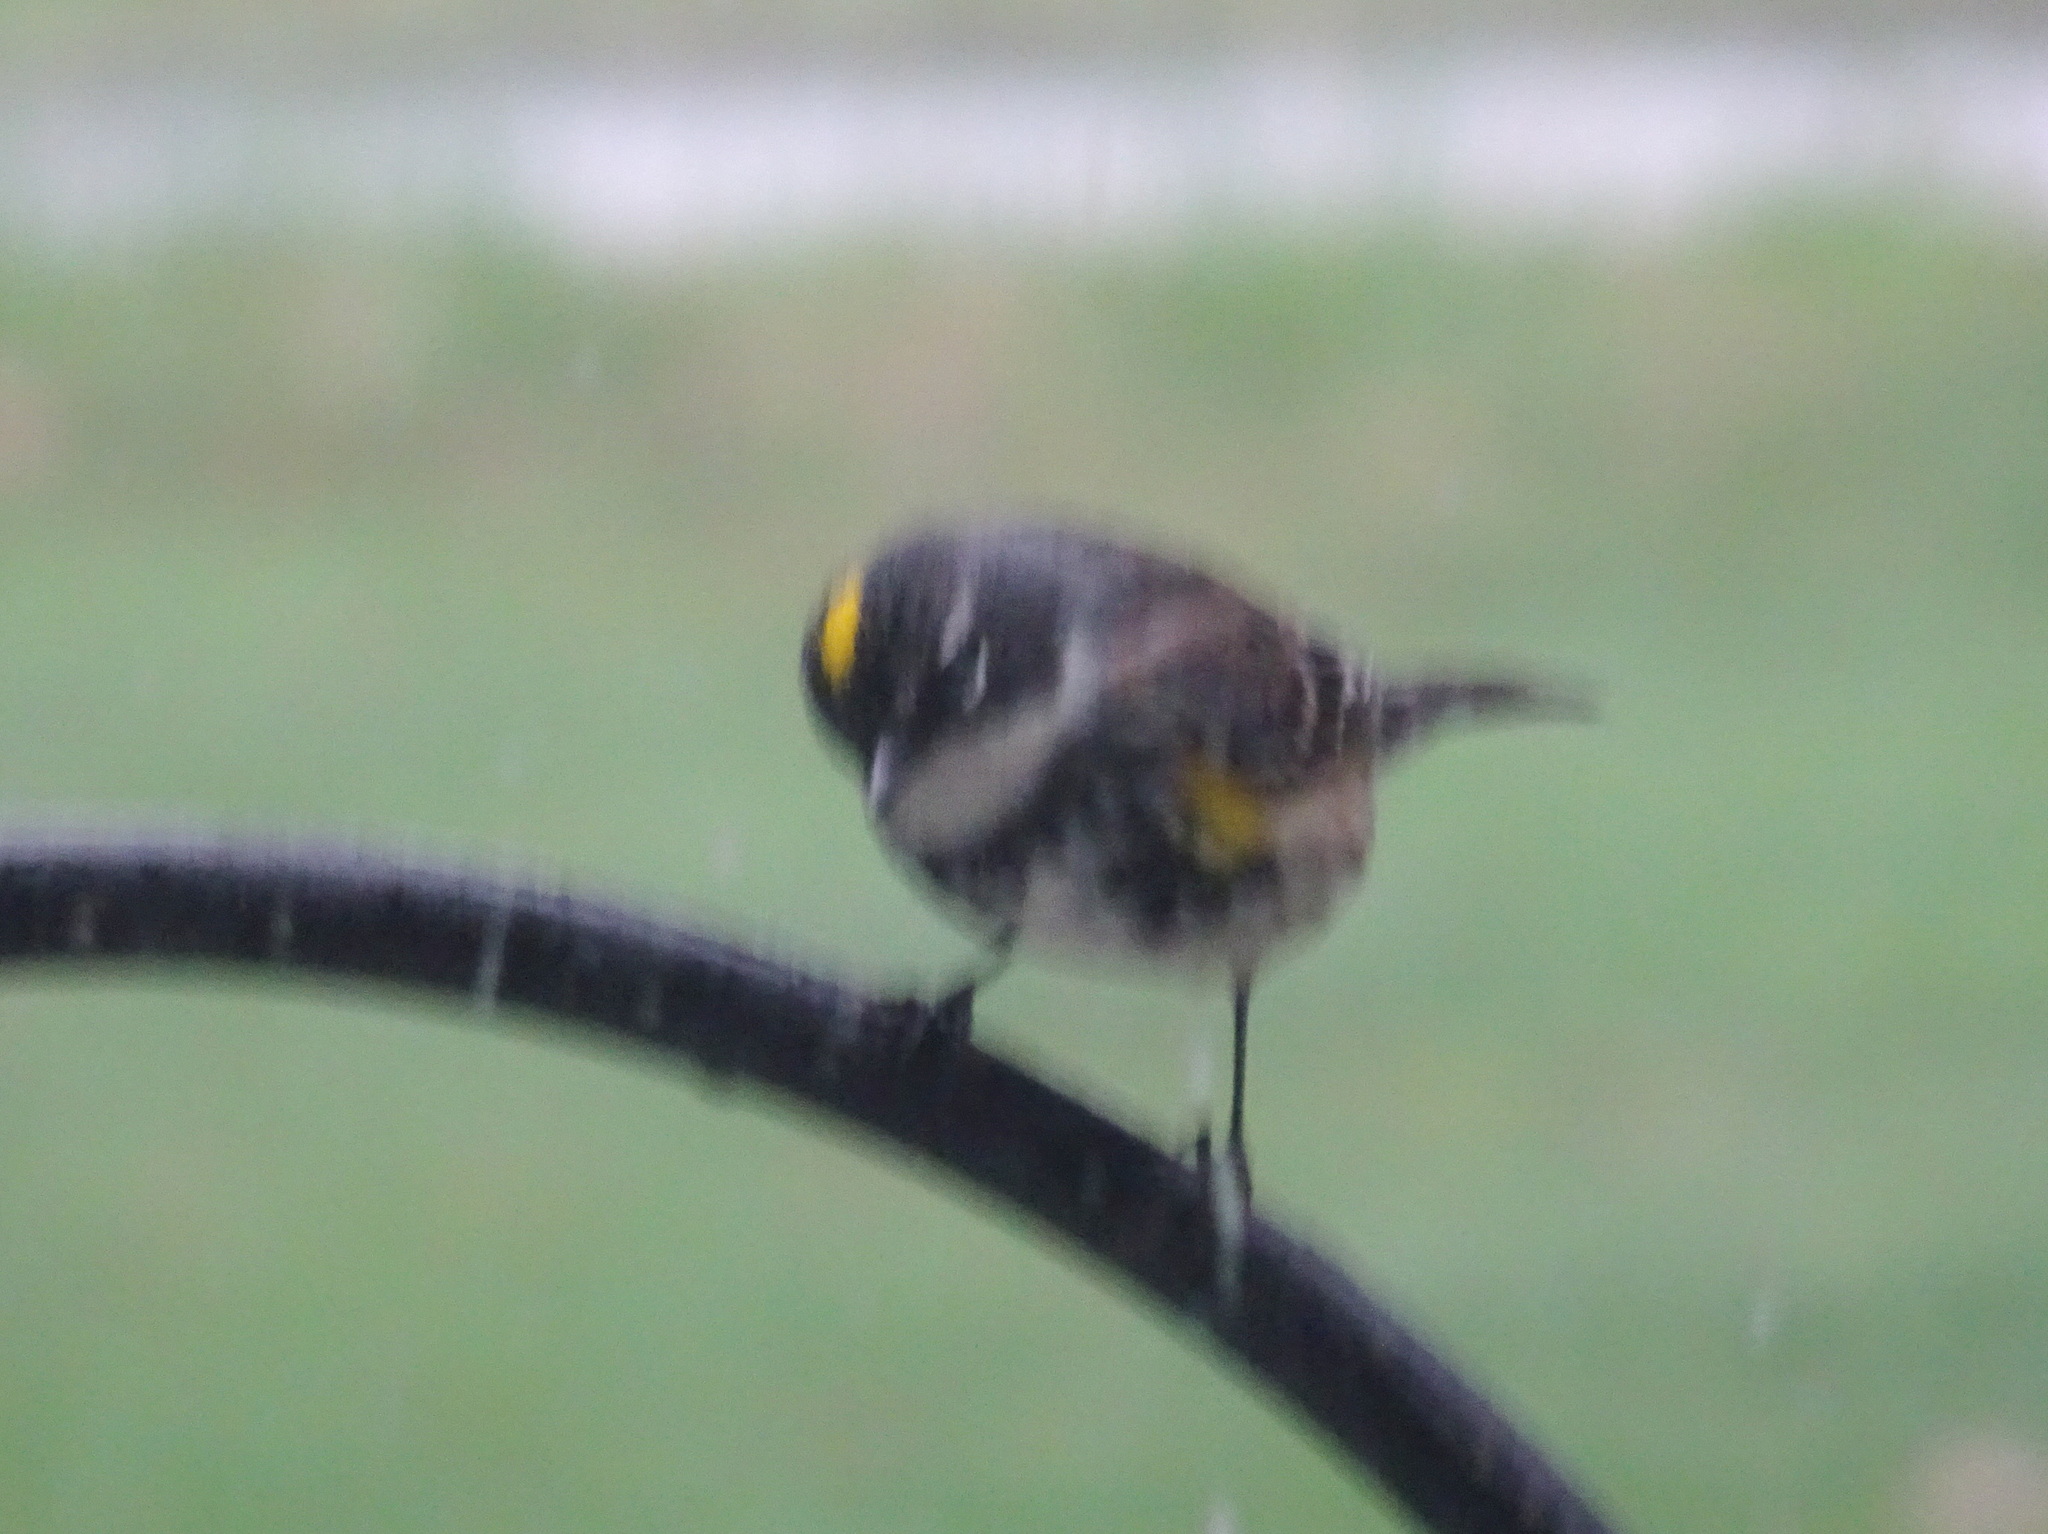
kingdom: Animalia
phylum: Chordata
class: Aves
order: Passeriformes
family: Parulidae
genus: Setophaga
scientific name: Setophaga coronata
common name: Myrtle warbler
